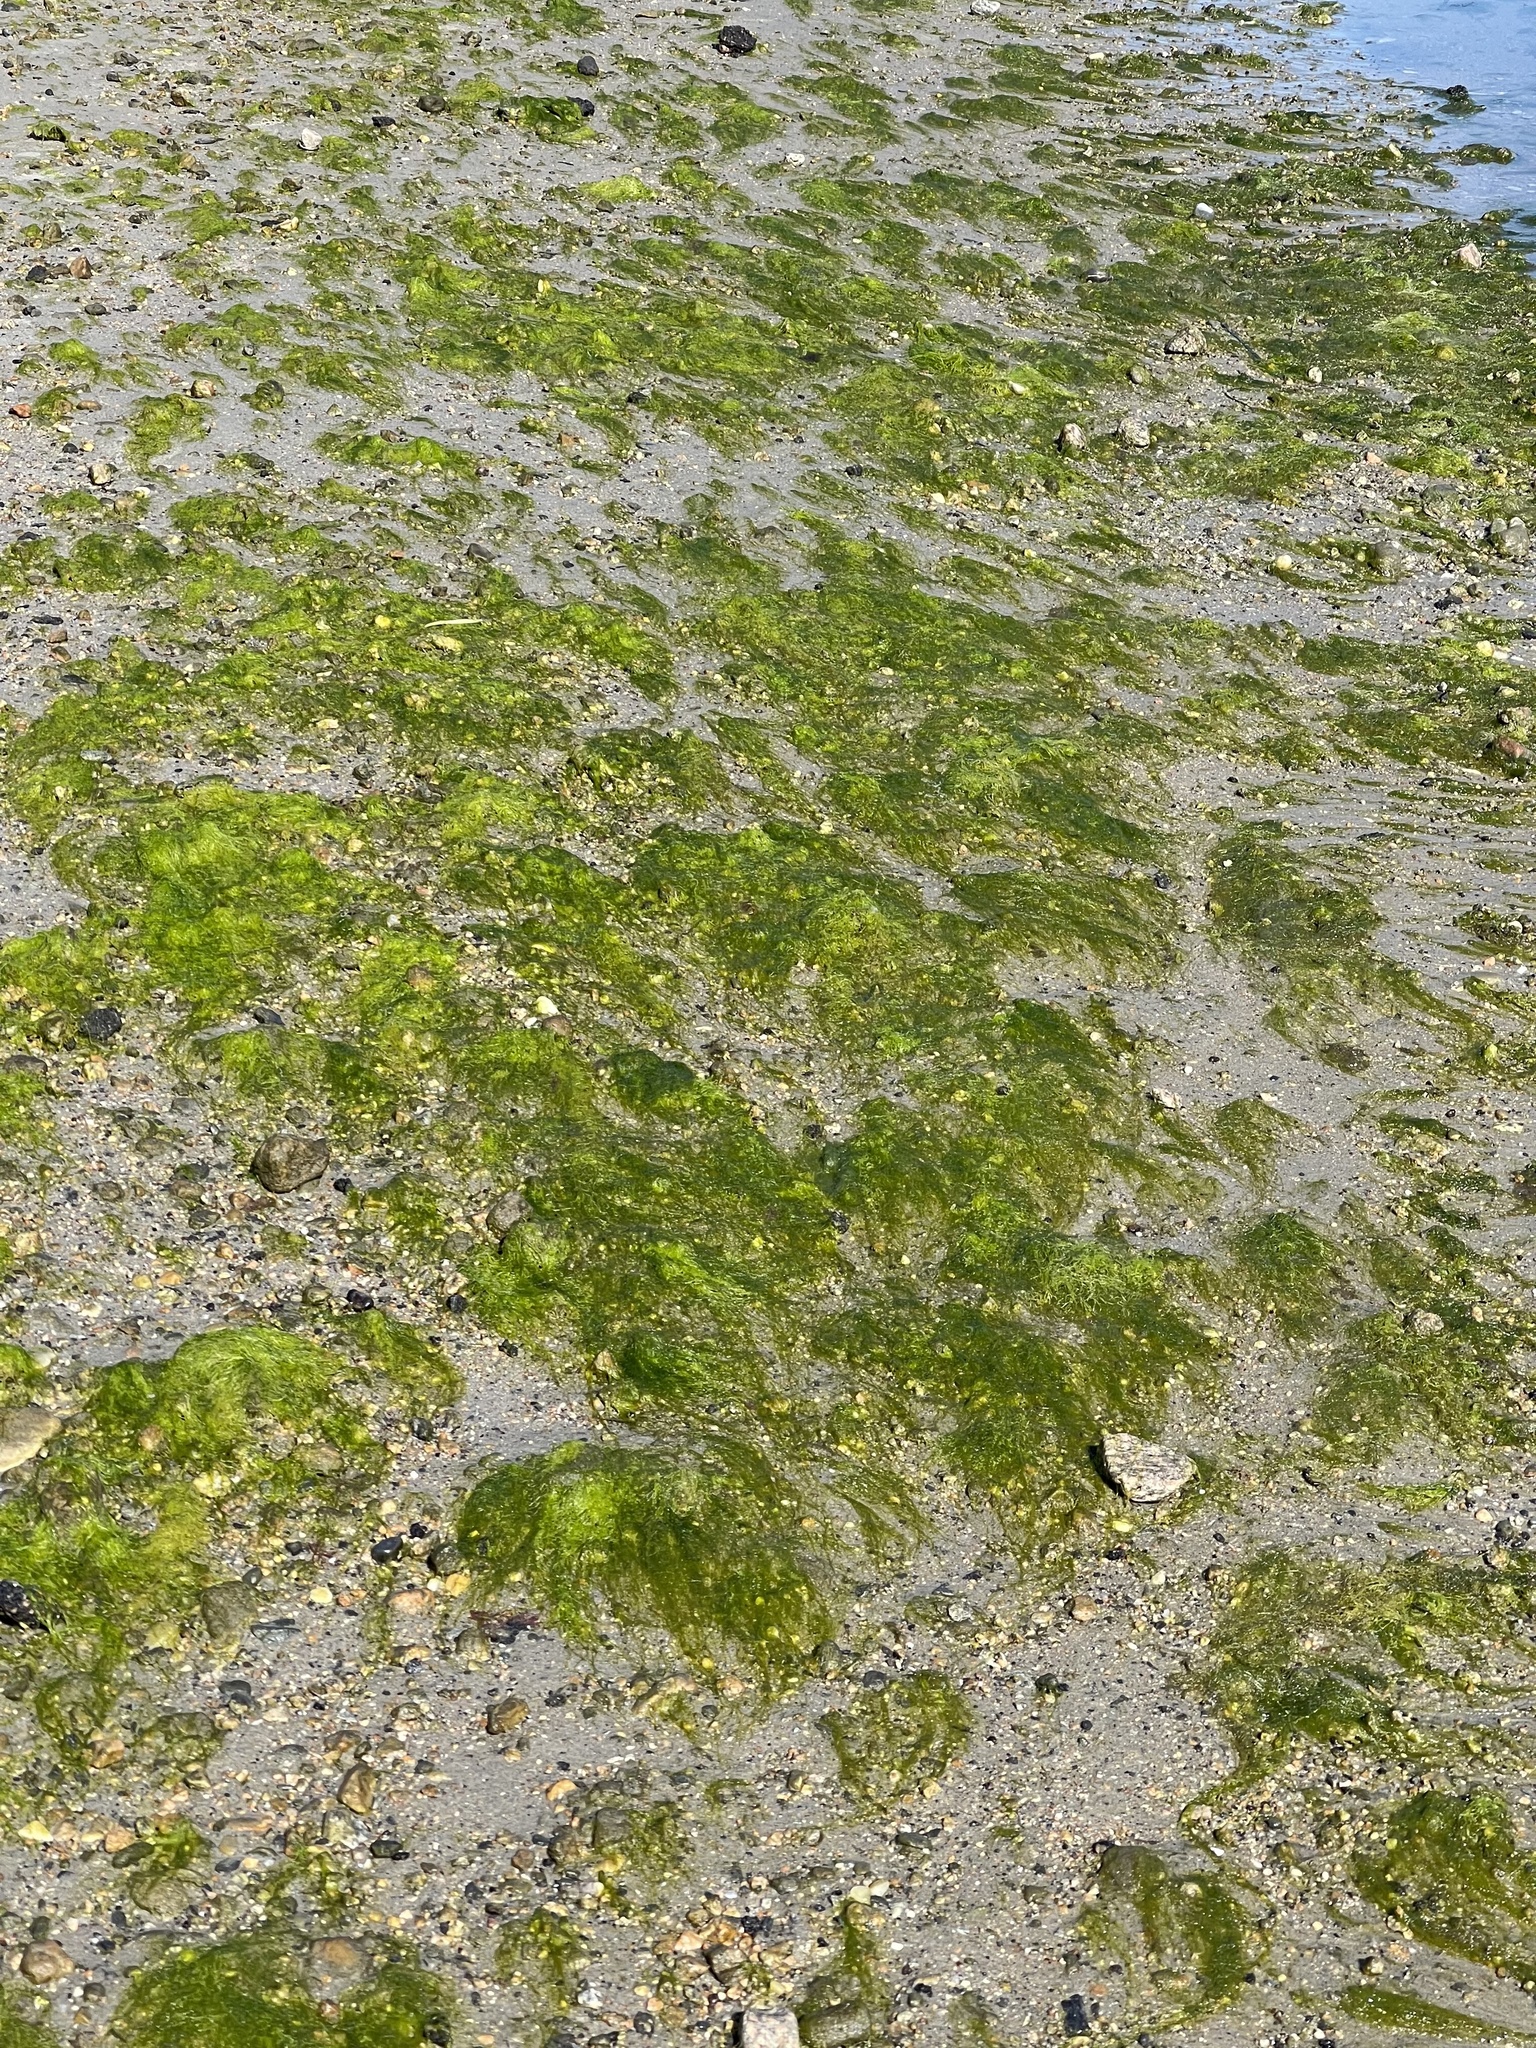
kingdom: Plantae
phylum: Chlorophyta
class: Ulvophyceae
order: Ulvales
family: Ulvaceae
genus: Ulva
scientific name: Ulva intestinalis
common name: Gut weed
